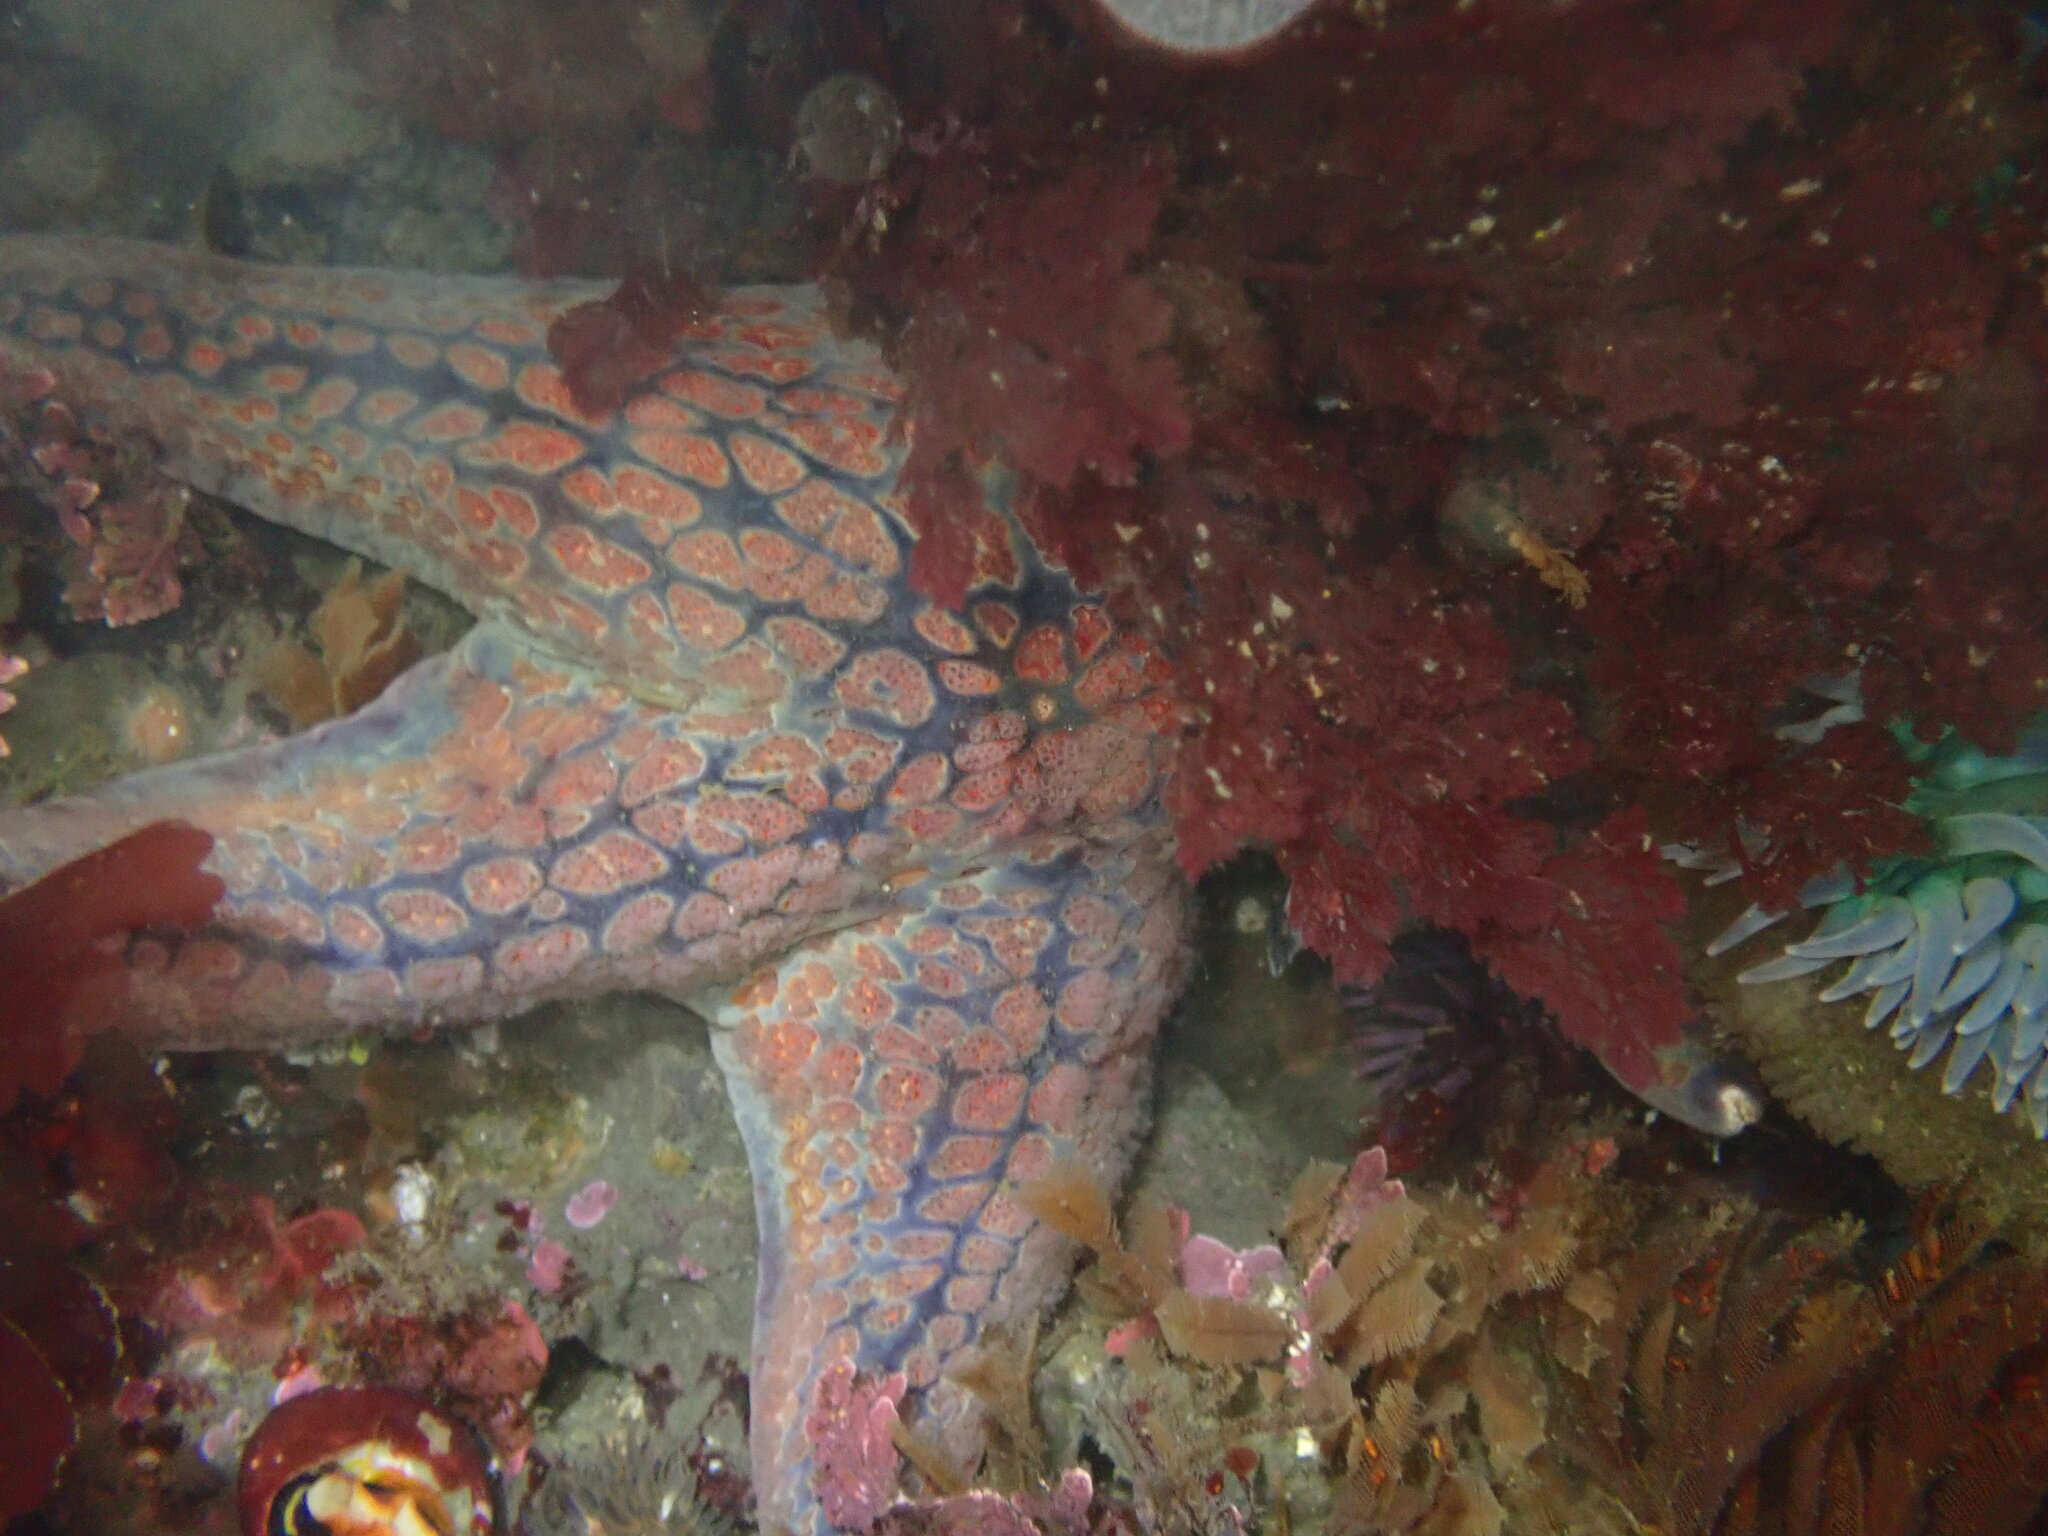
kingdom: Animalia
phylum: Echinodermata
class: Asteroidea
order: Valvatida
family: Asteropseidae
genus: Dermasterias
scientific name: Dermasterias imbricata
